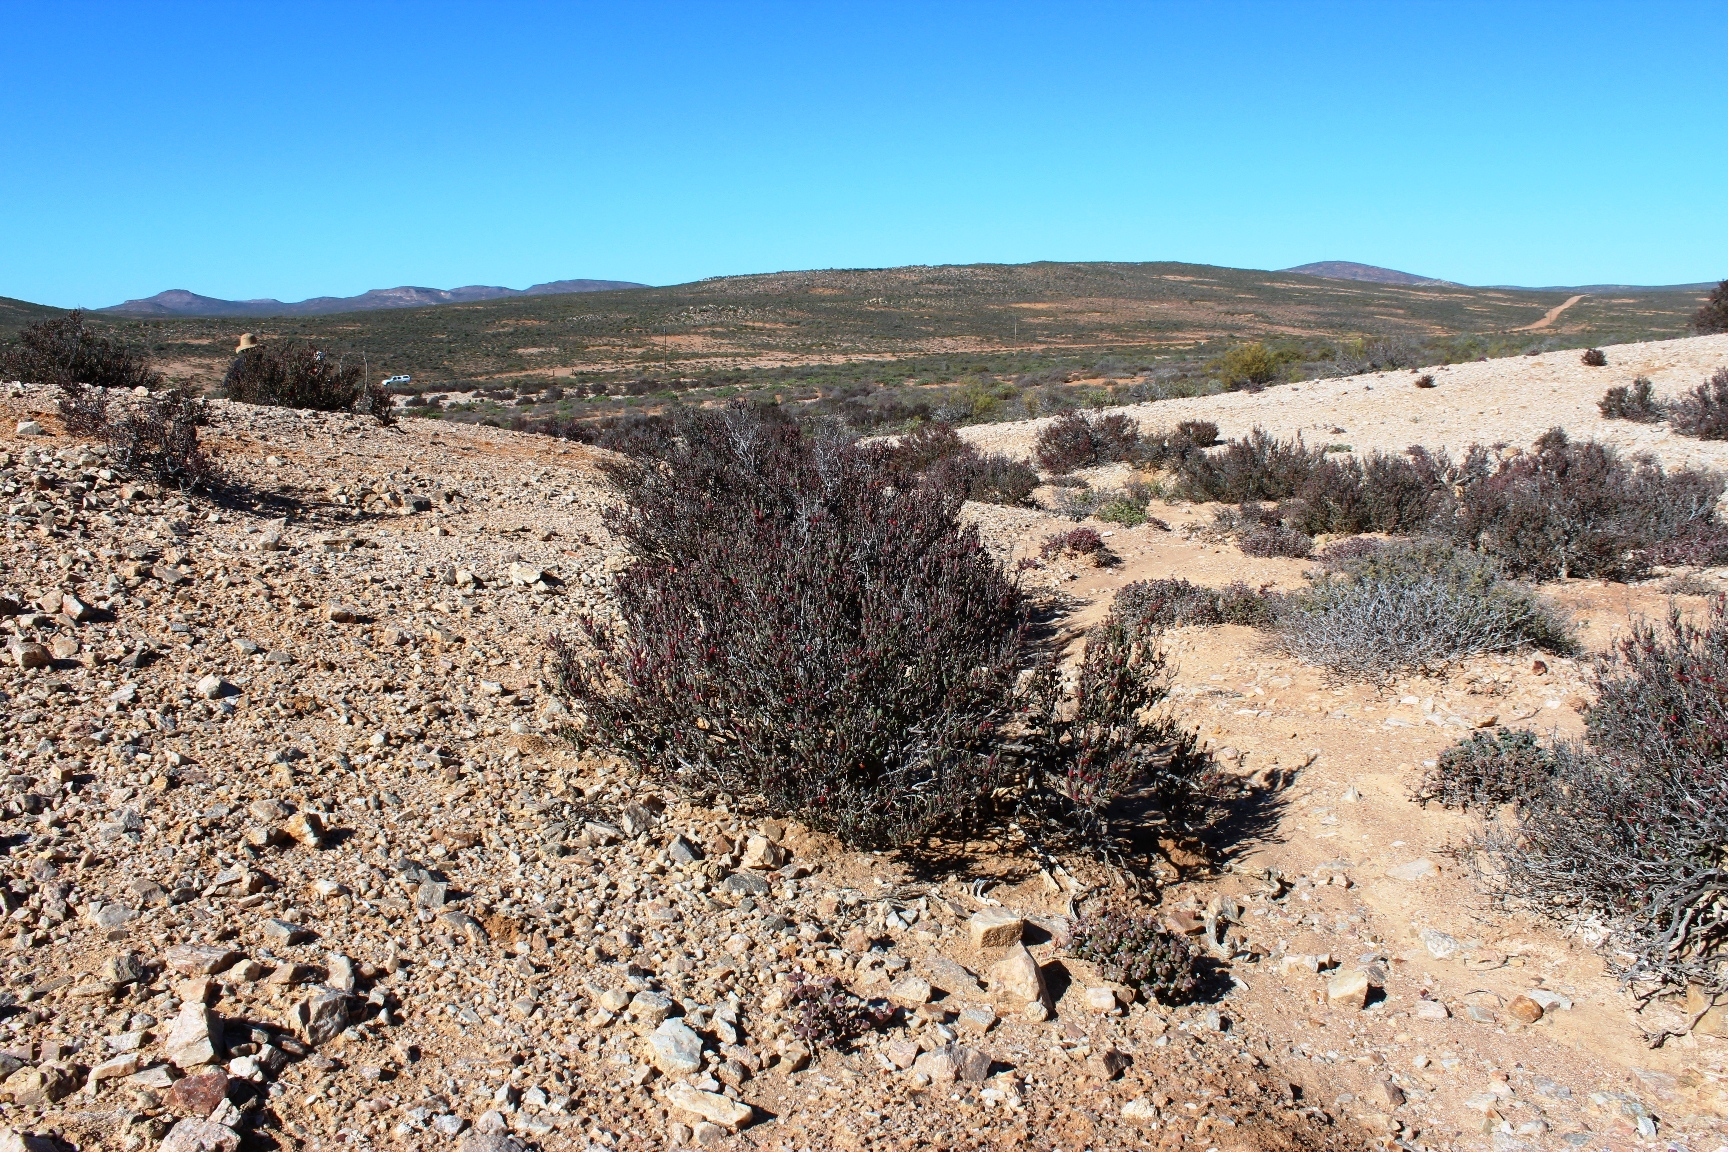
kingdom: Plantae
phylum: Tracheophyta
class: Magnoliopsida
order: Caryophyllales
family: Amaranthaceae
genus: Salicornia
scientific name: Salicornia xerophila
